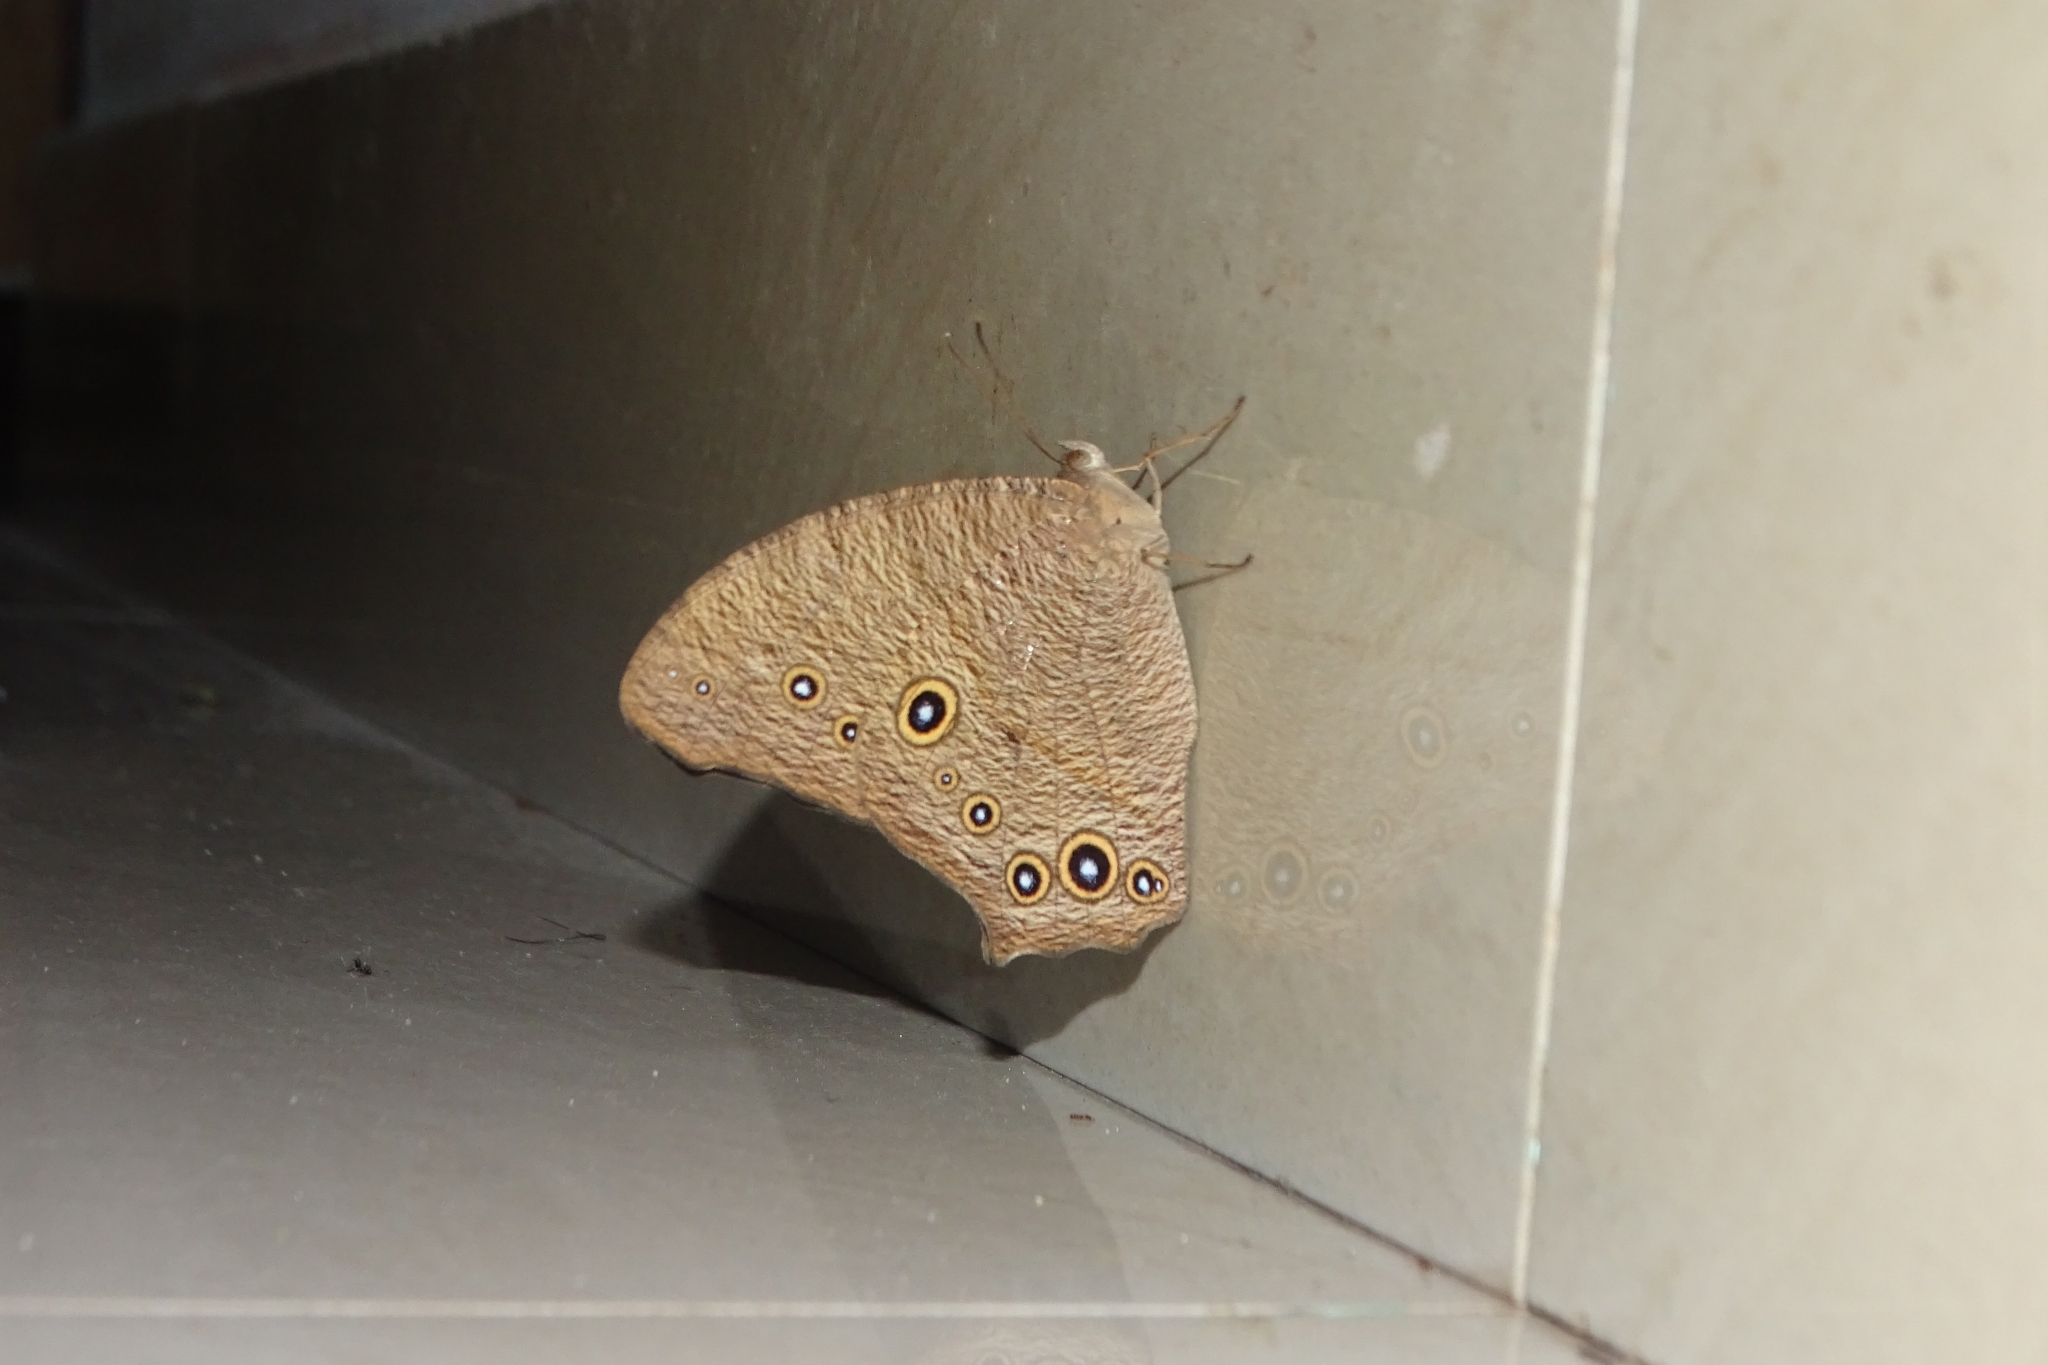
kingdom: Animalia
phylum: Arthropoda
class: Insecta
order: Lepidoptera
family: Nymphalidae
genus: Melanitis
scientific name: Melanitis leda
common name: Twilight brown
